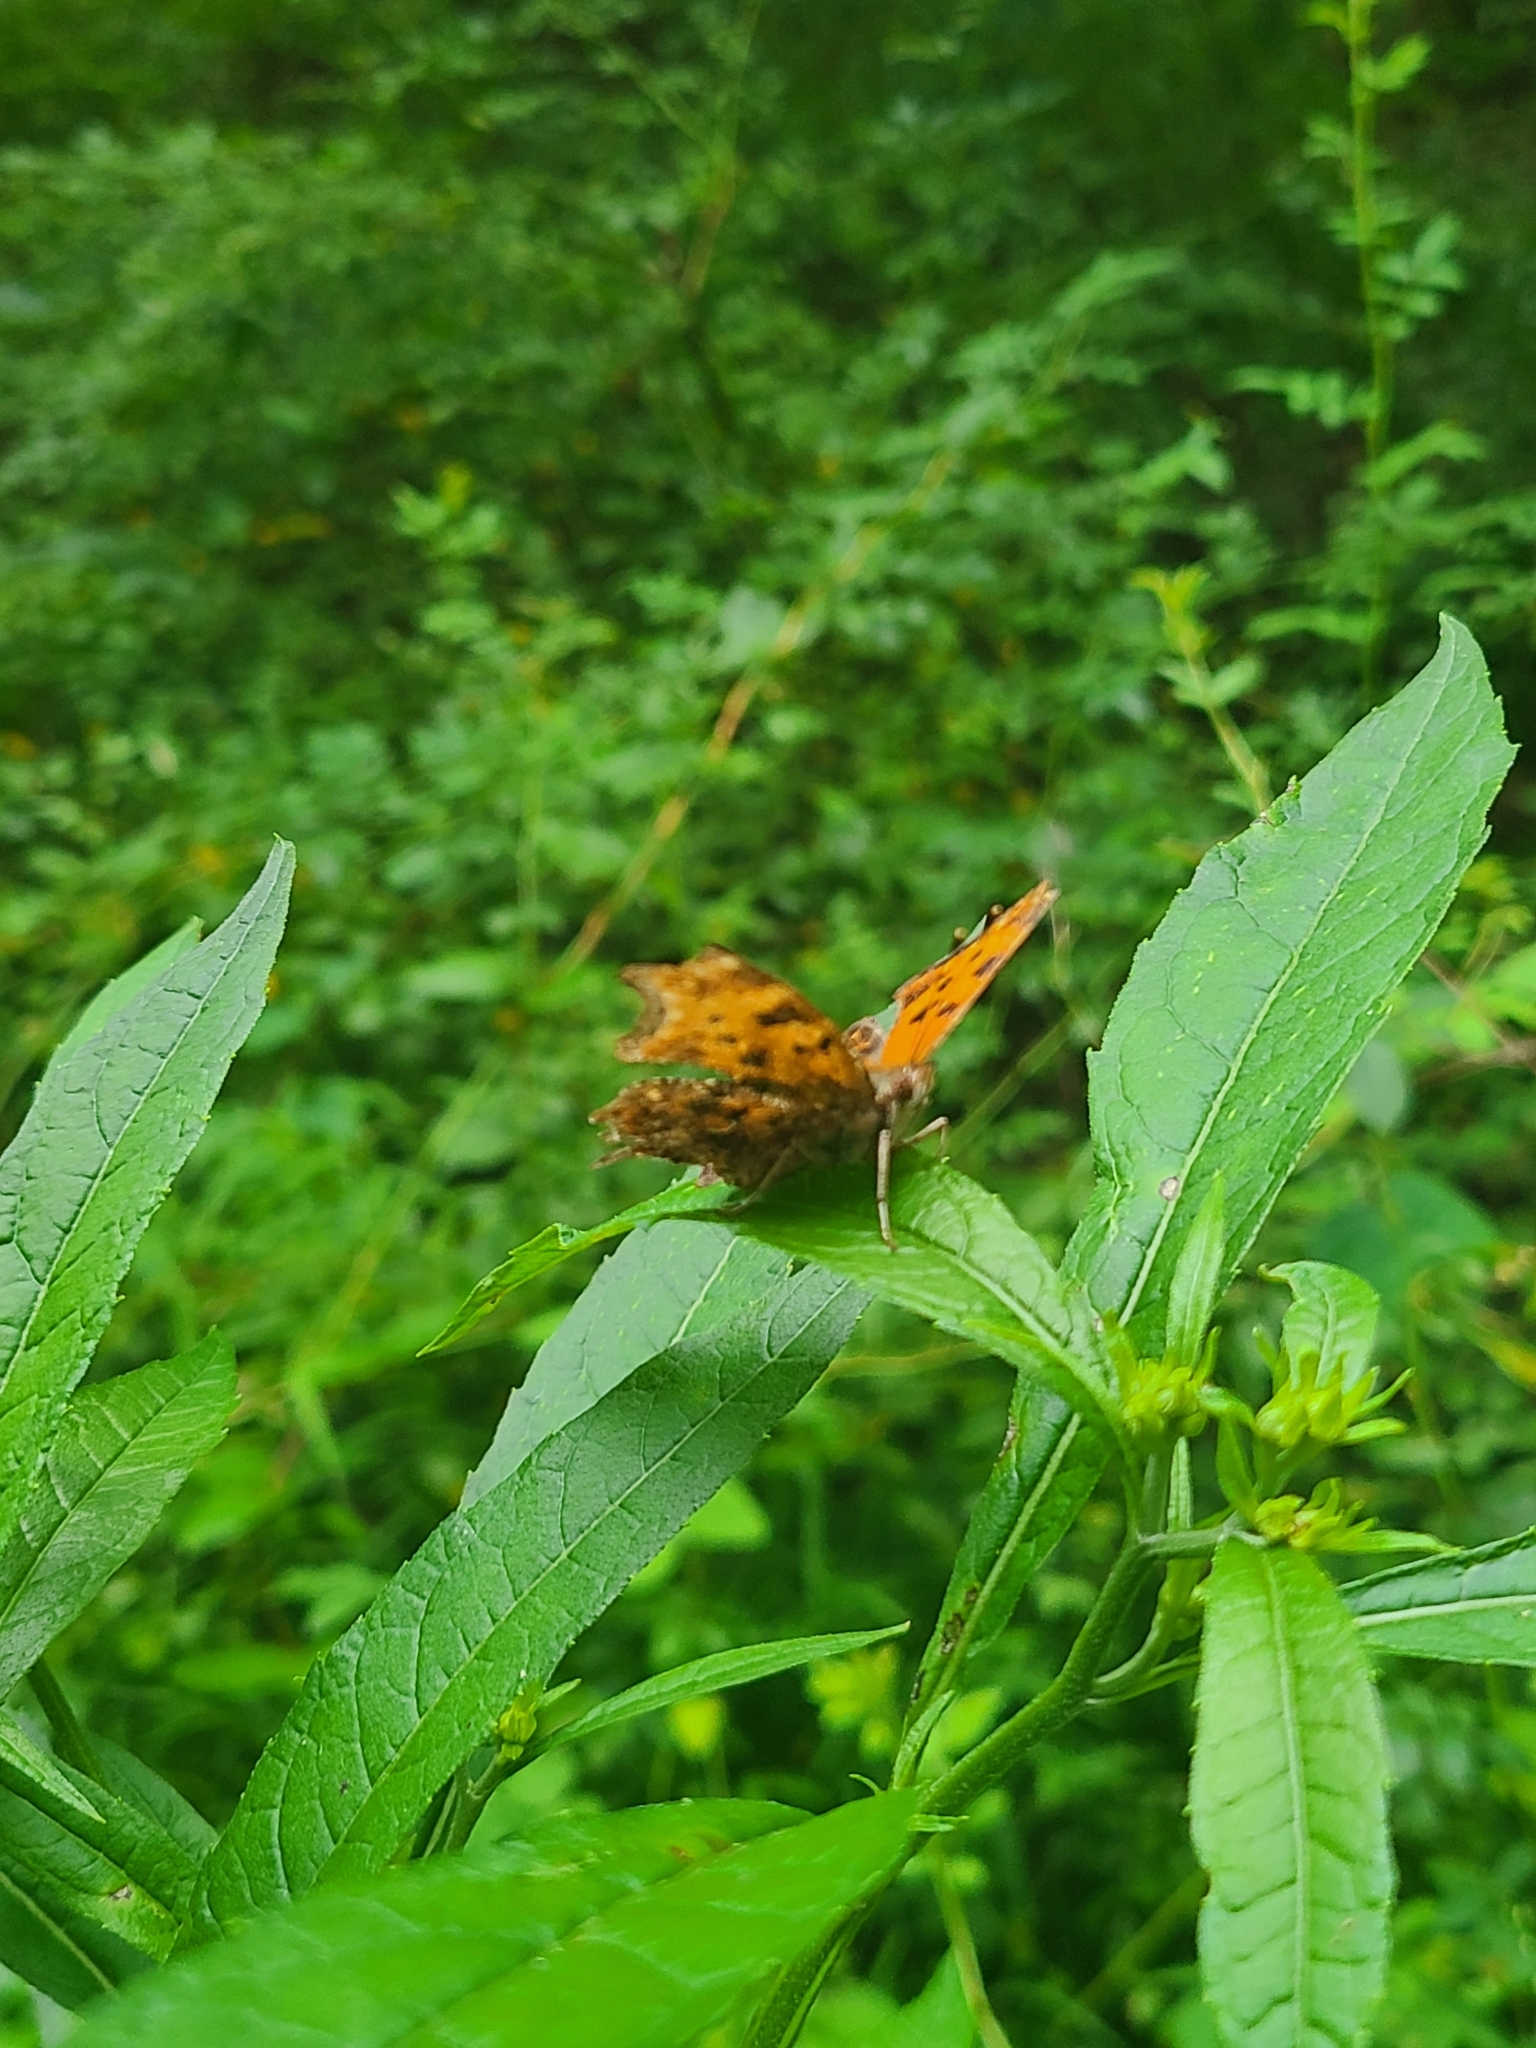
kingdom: Animalia
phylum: Arthropoda
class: Insecta
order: Lepidoptera
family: Nymphalidae
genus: Polygonia
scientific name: Polygonia comma
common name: Eastern comma
